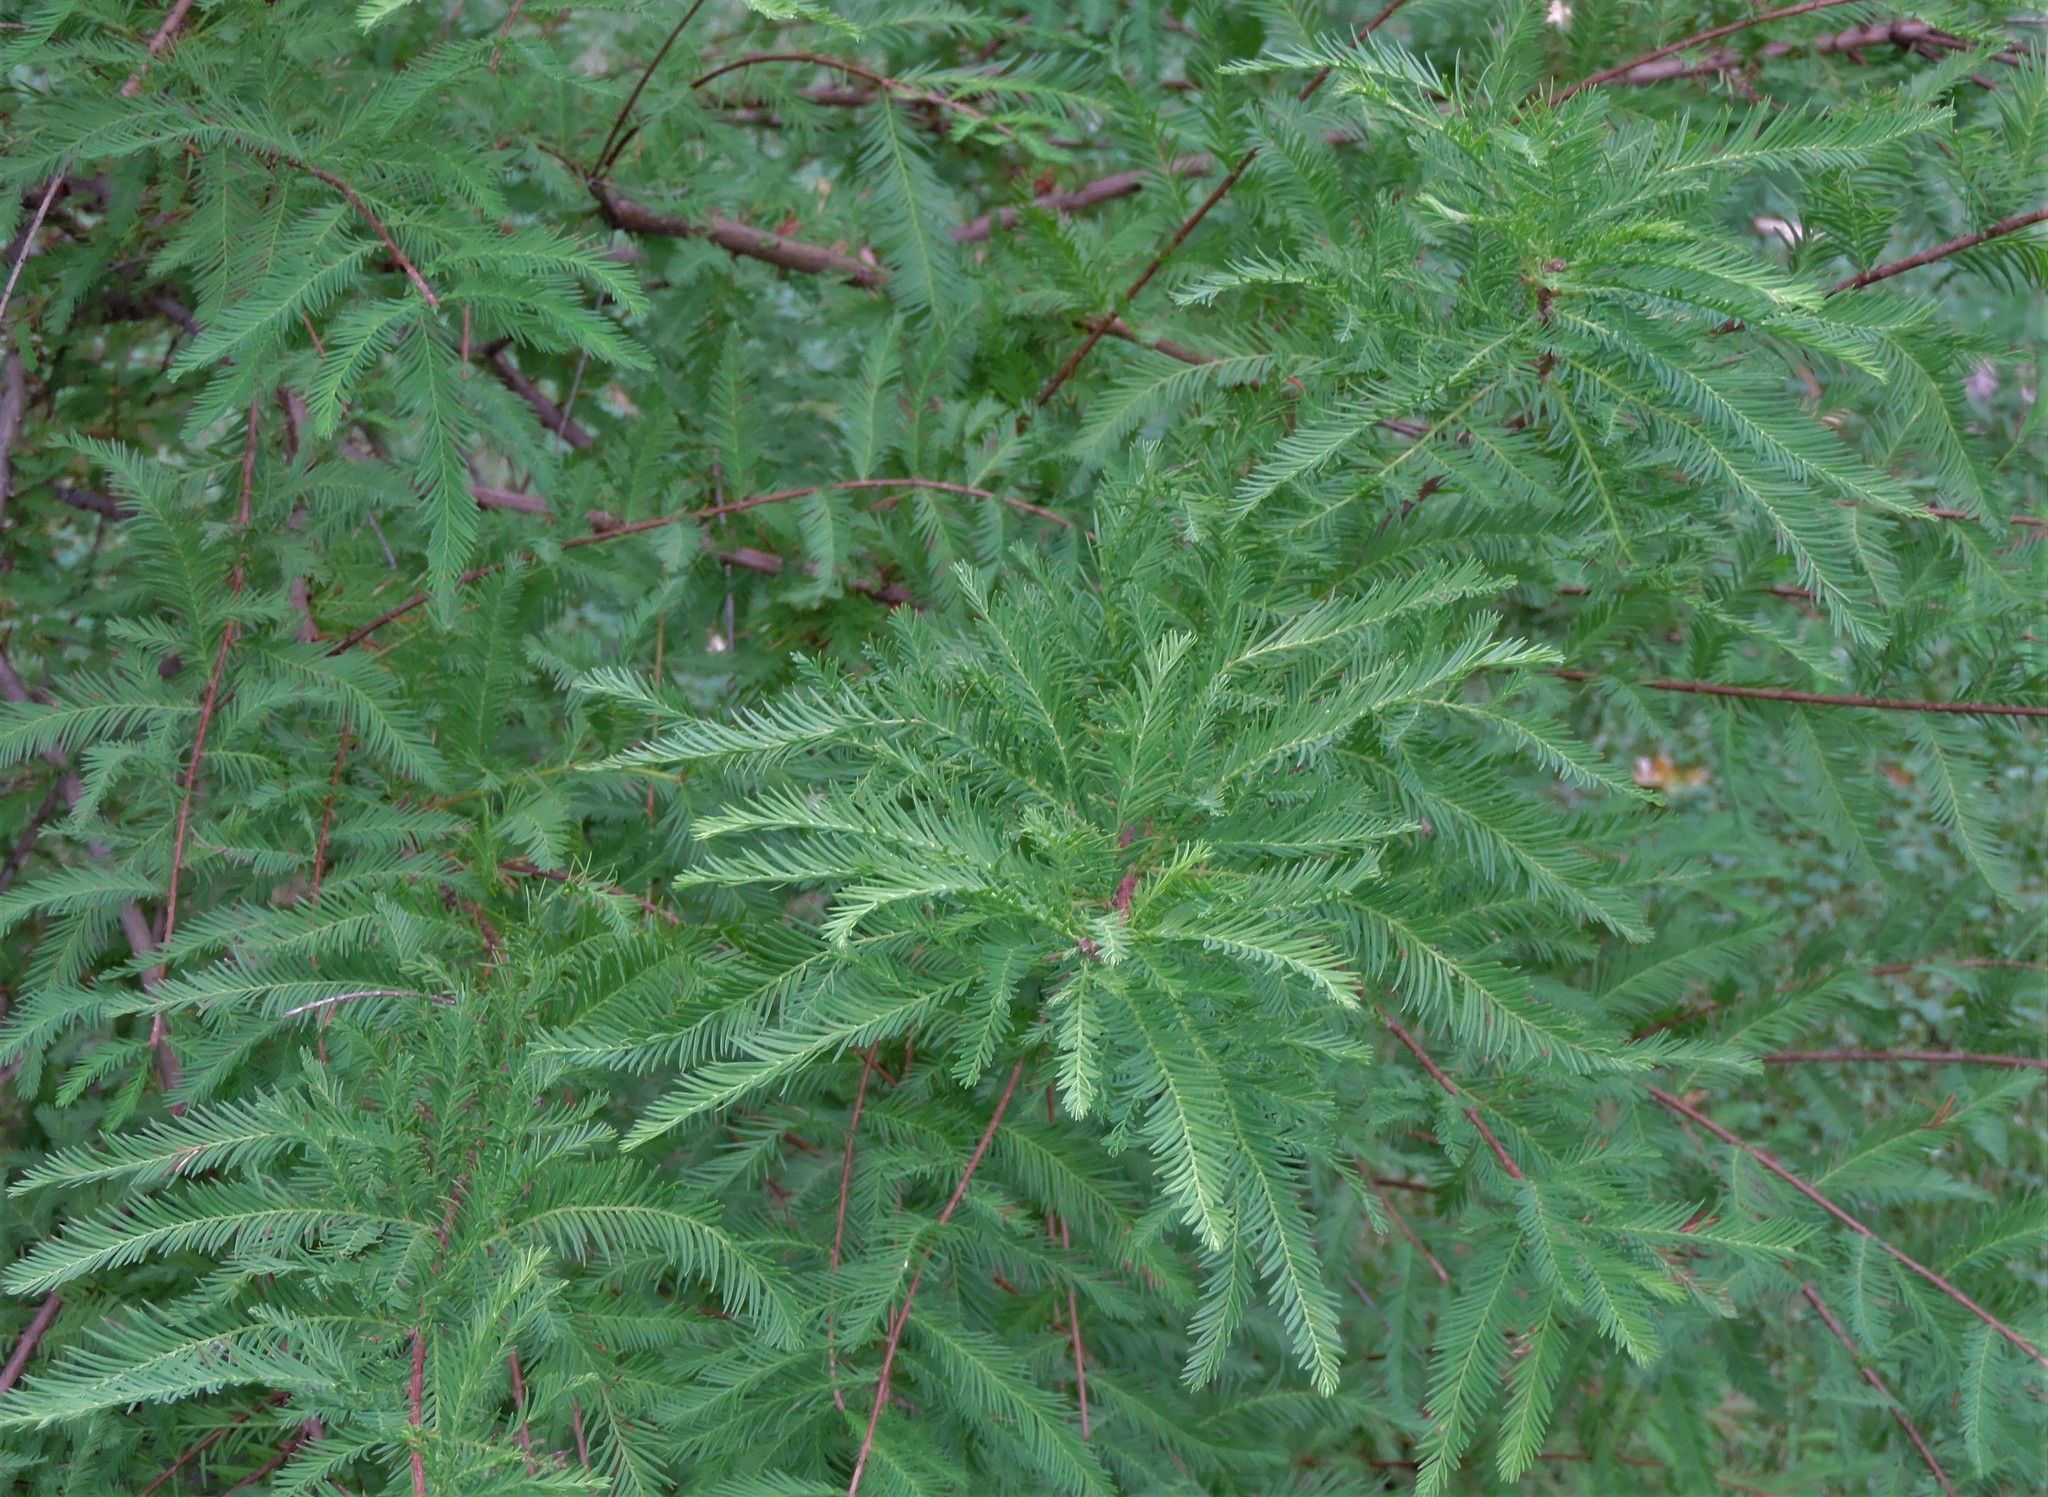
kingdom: Plantae
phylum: Tracheophyta
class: Pinopsida
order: Pinales
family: Cupressaceae
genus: Taxodium
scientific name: Taxodium distichum
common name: Bald cypress
